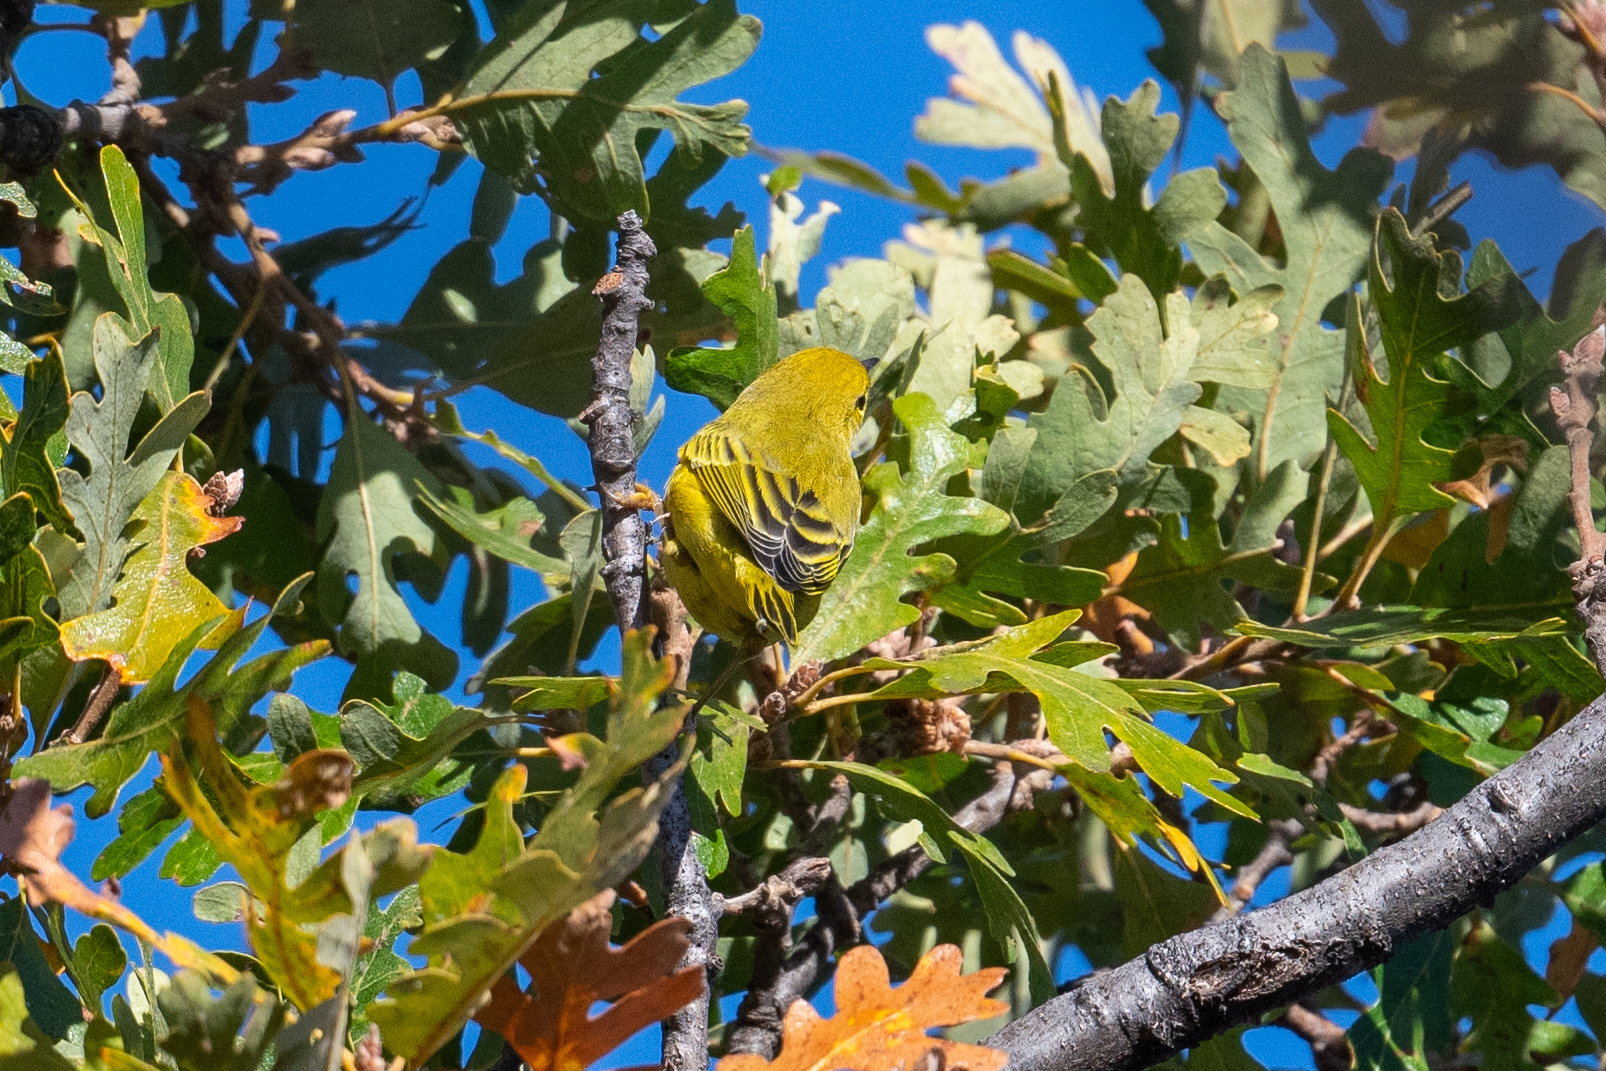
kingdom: Animalia
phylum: Chordata
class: Aves
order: Passeriformes
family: Parulidae
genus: Setophaga
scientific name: Setophaga petechia
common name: Yellow warbler
